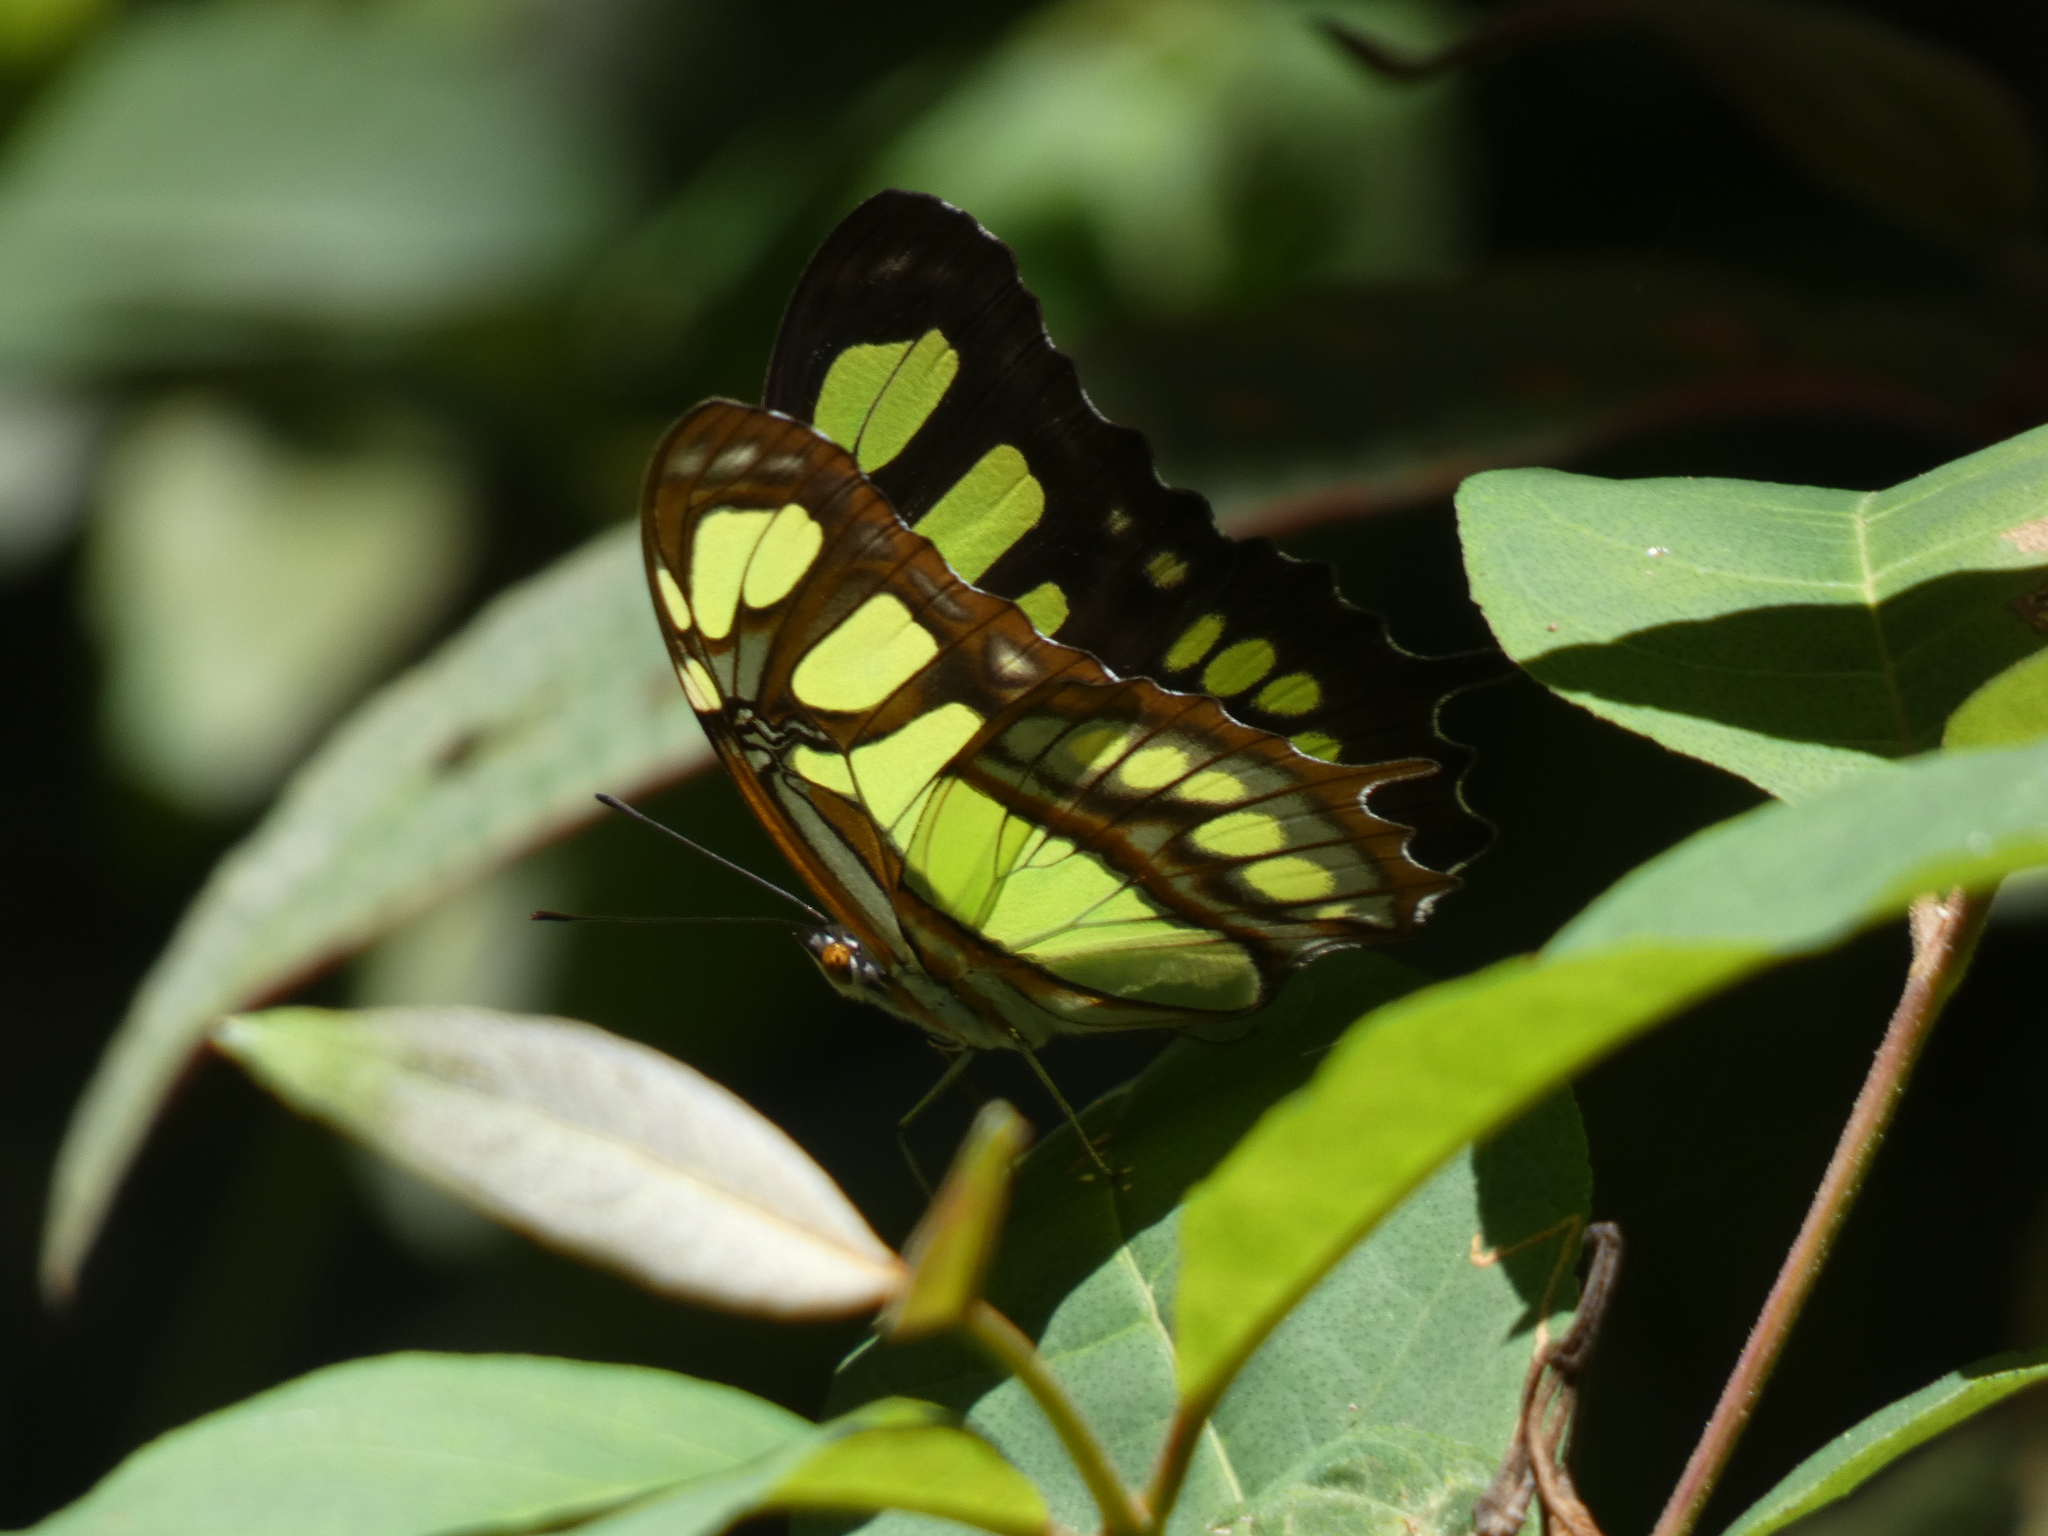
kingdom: Animalia
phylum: Arthropoda
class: Insecta
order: Lepidoptera
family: Nymphalidae
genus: Siproeta
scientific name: Siproeta stelenes
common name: Malachite
